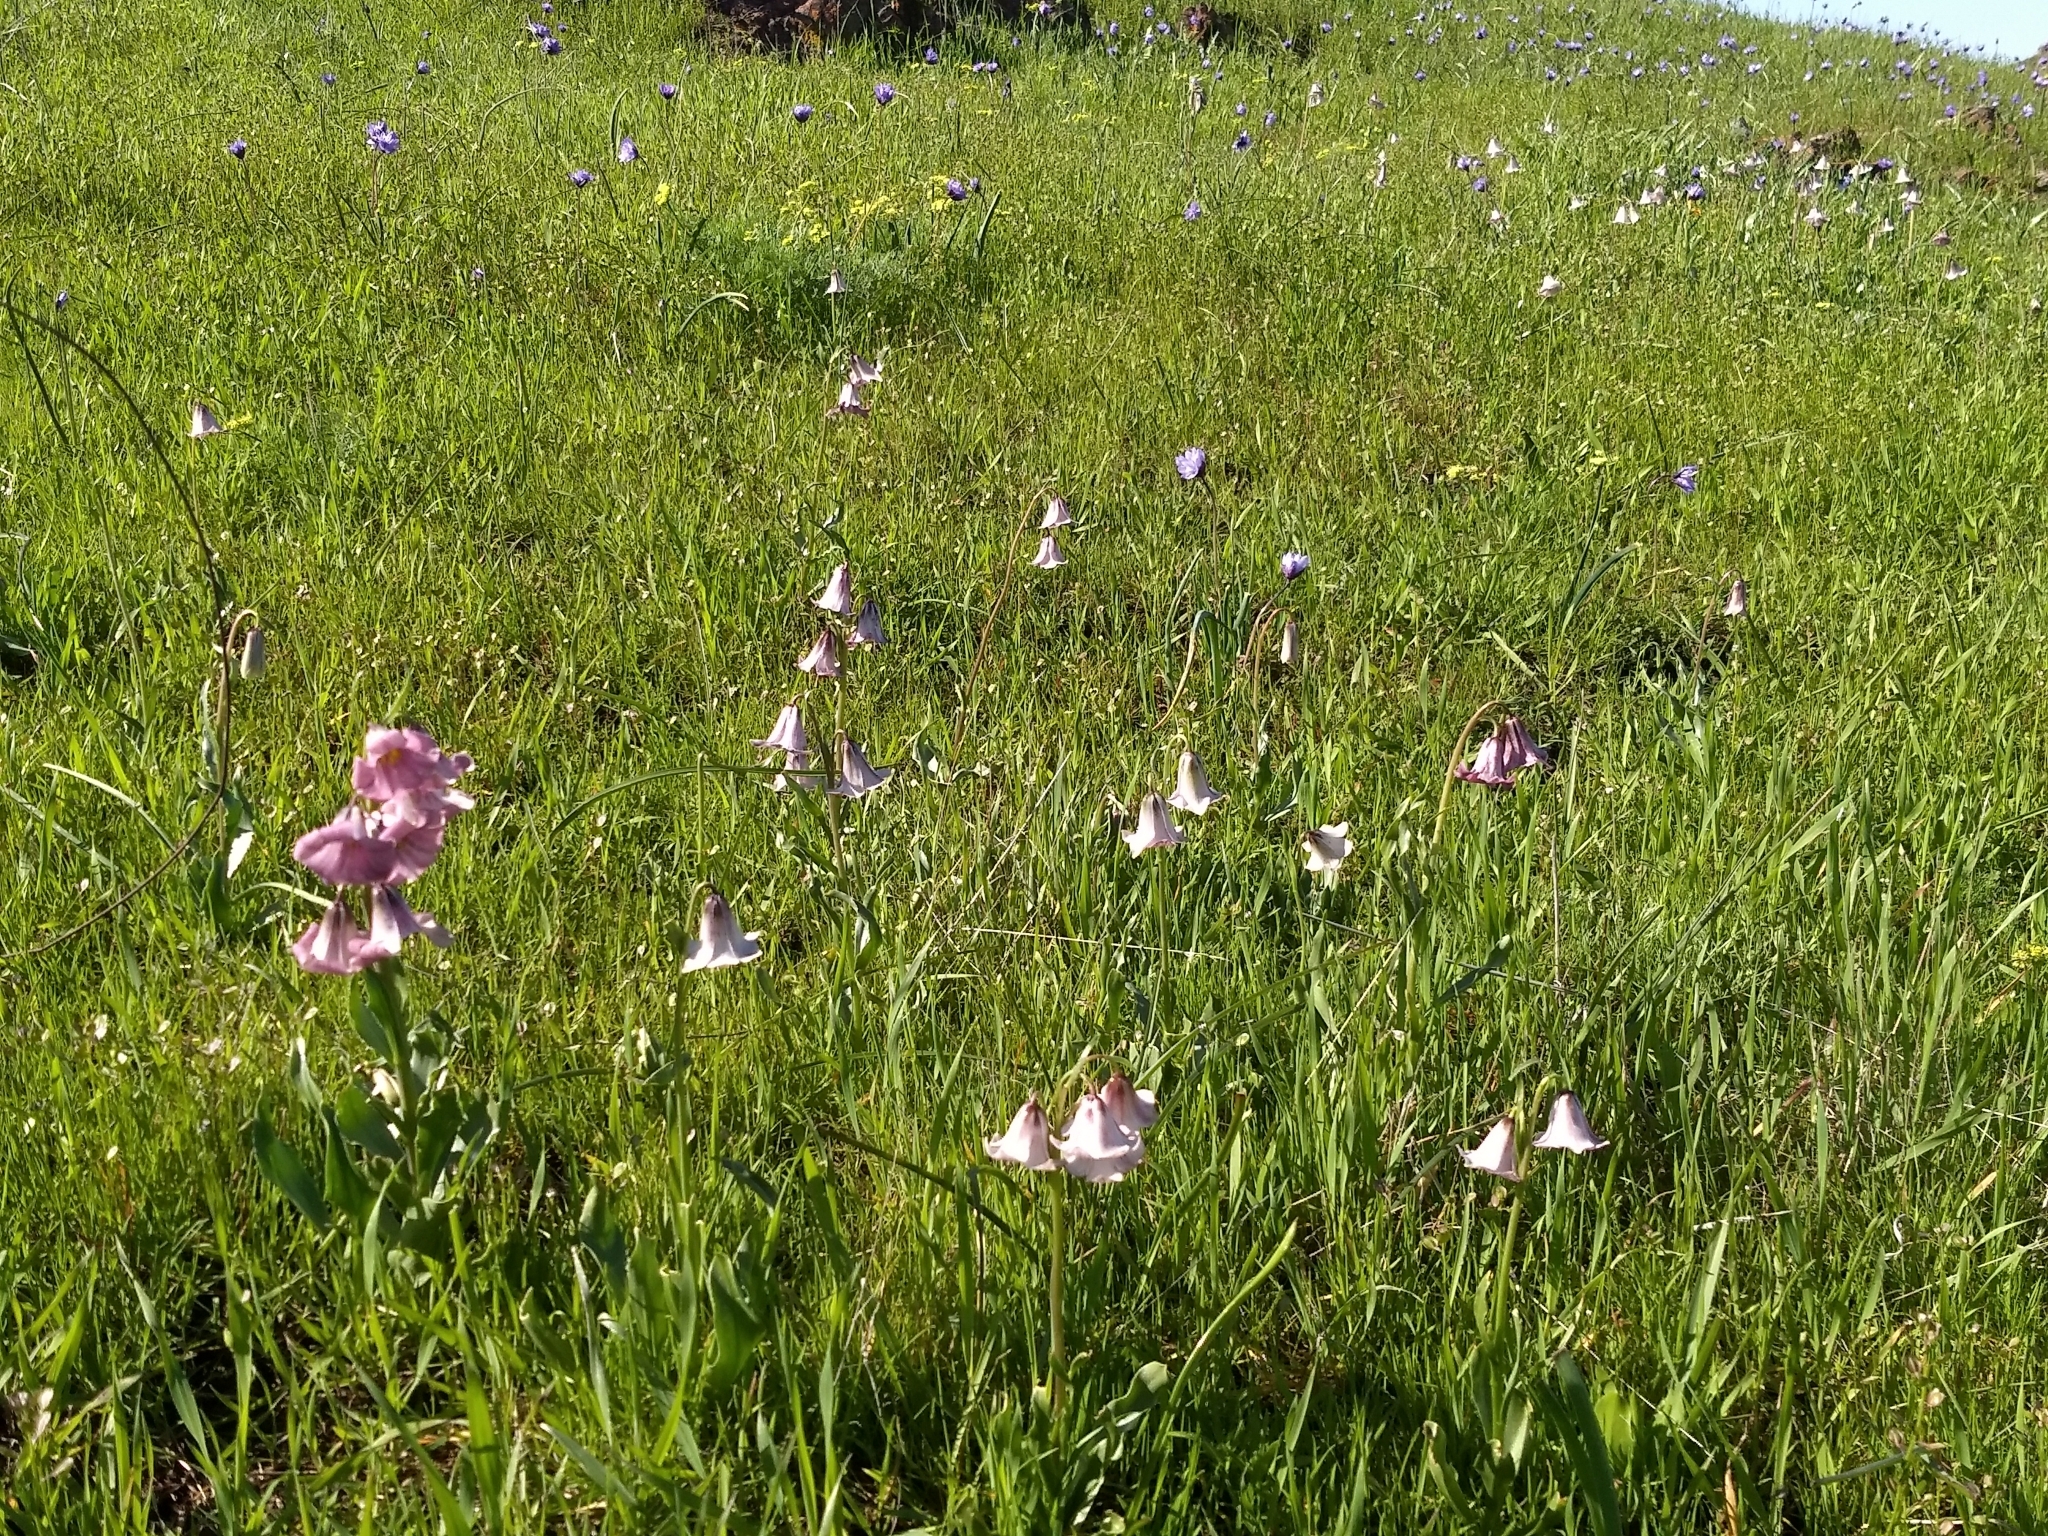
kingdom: Plantae
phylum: Tracheophyta
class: Liliopsida
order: Liliales
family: Liliaceae
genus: Fritillaria
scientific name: Fritillaria striata
